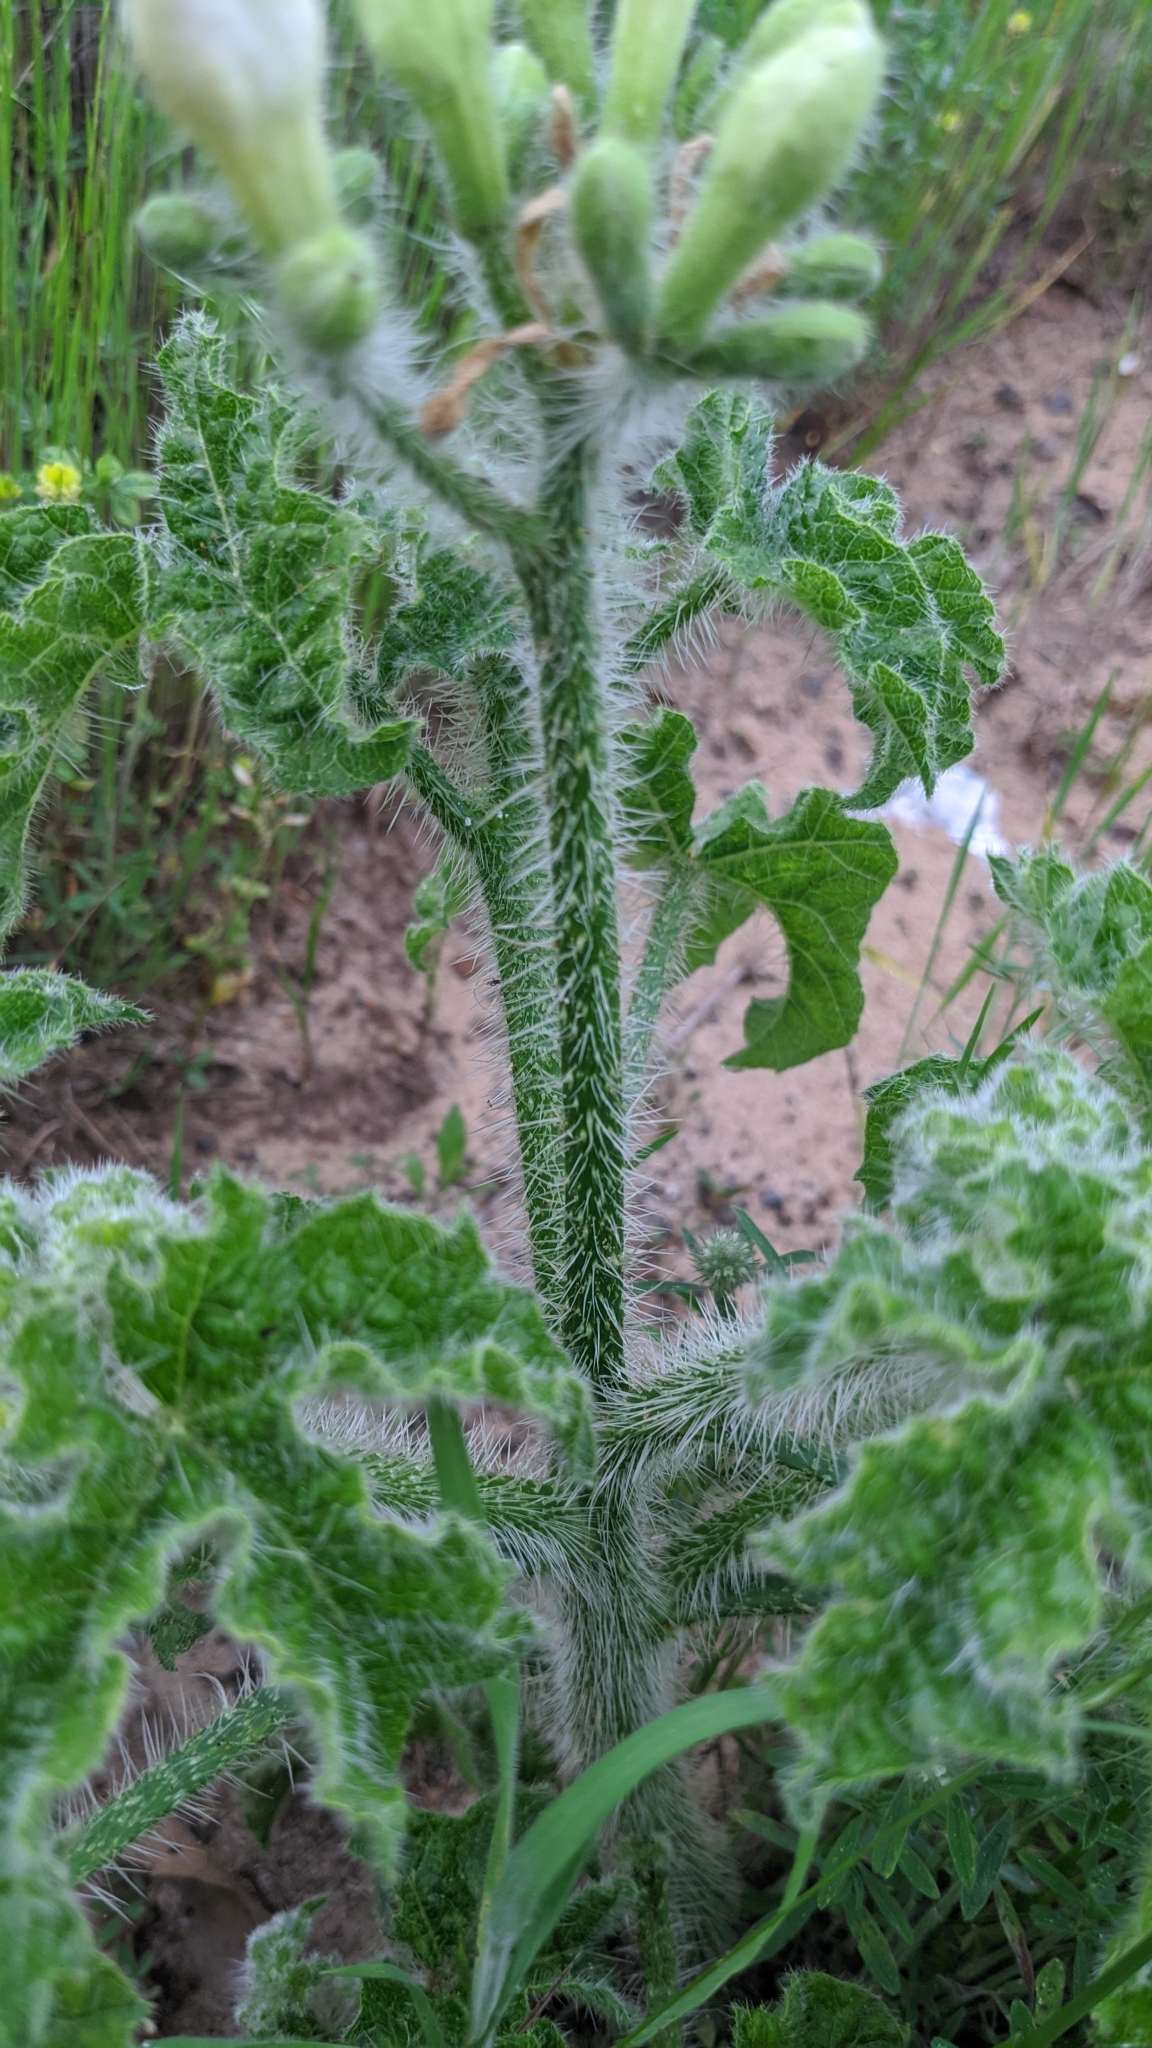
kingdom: Plantae
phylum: Tracheophyta
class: Magnoliopsida
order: Malpighiales
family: Euphorbiaceae
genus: Cnidoscolus
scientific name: Cnidoscolus texanus
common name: Texas bull-nettle
